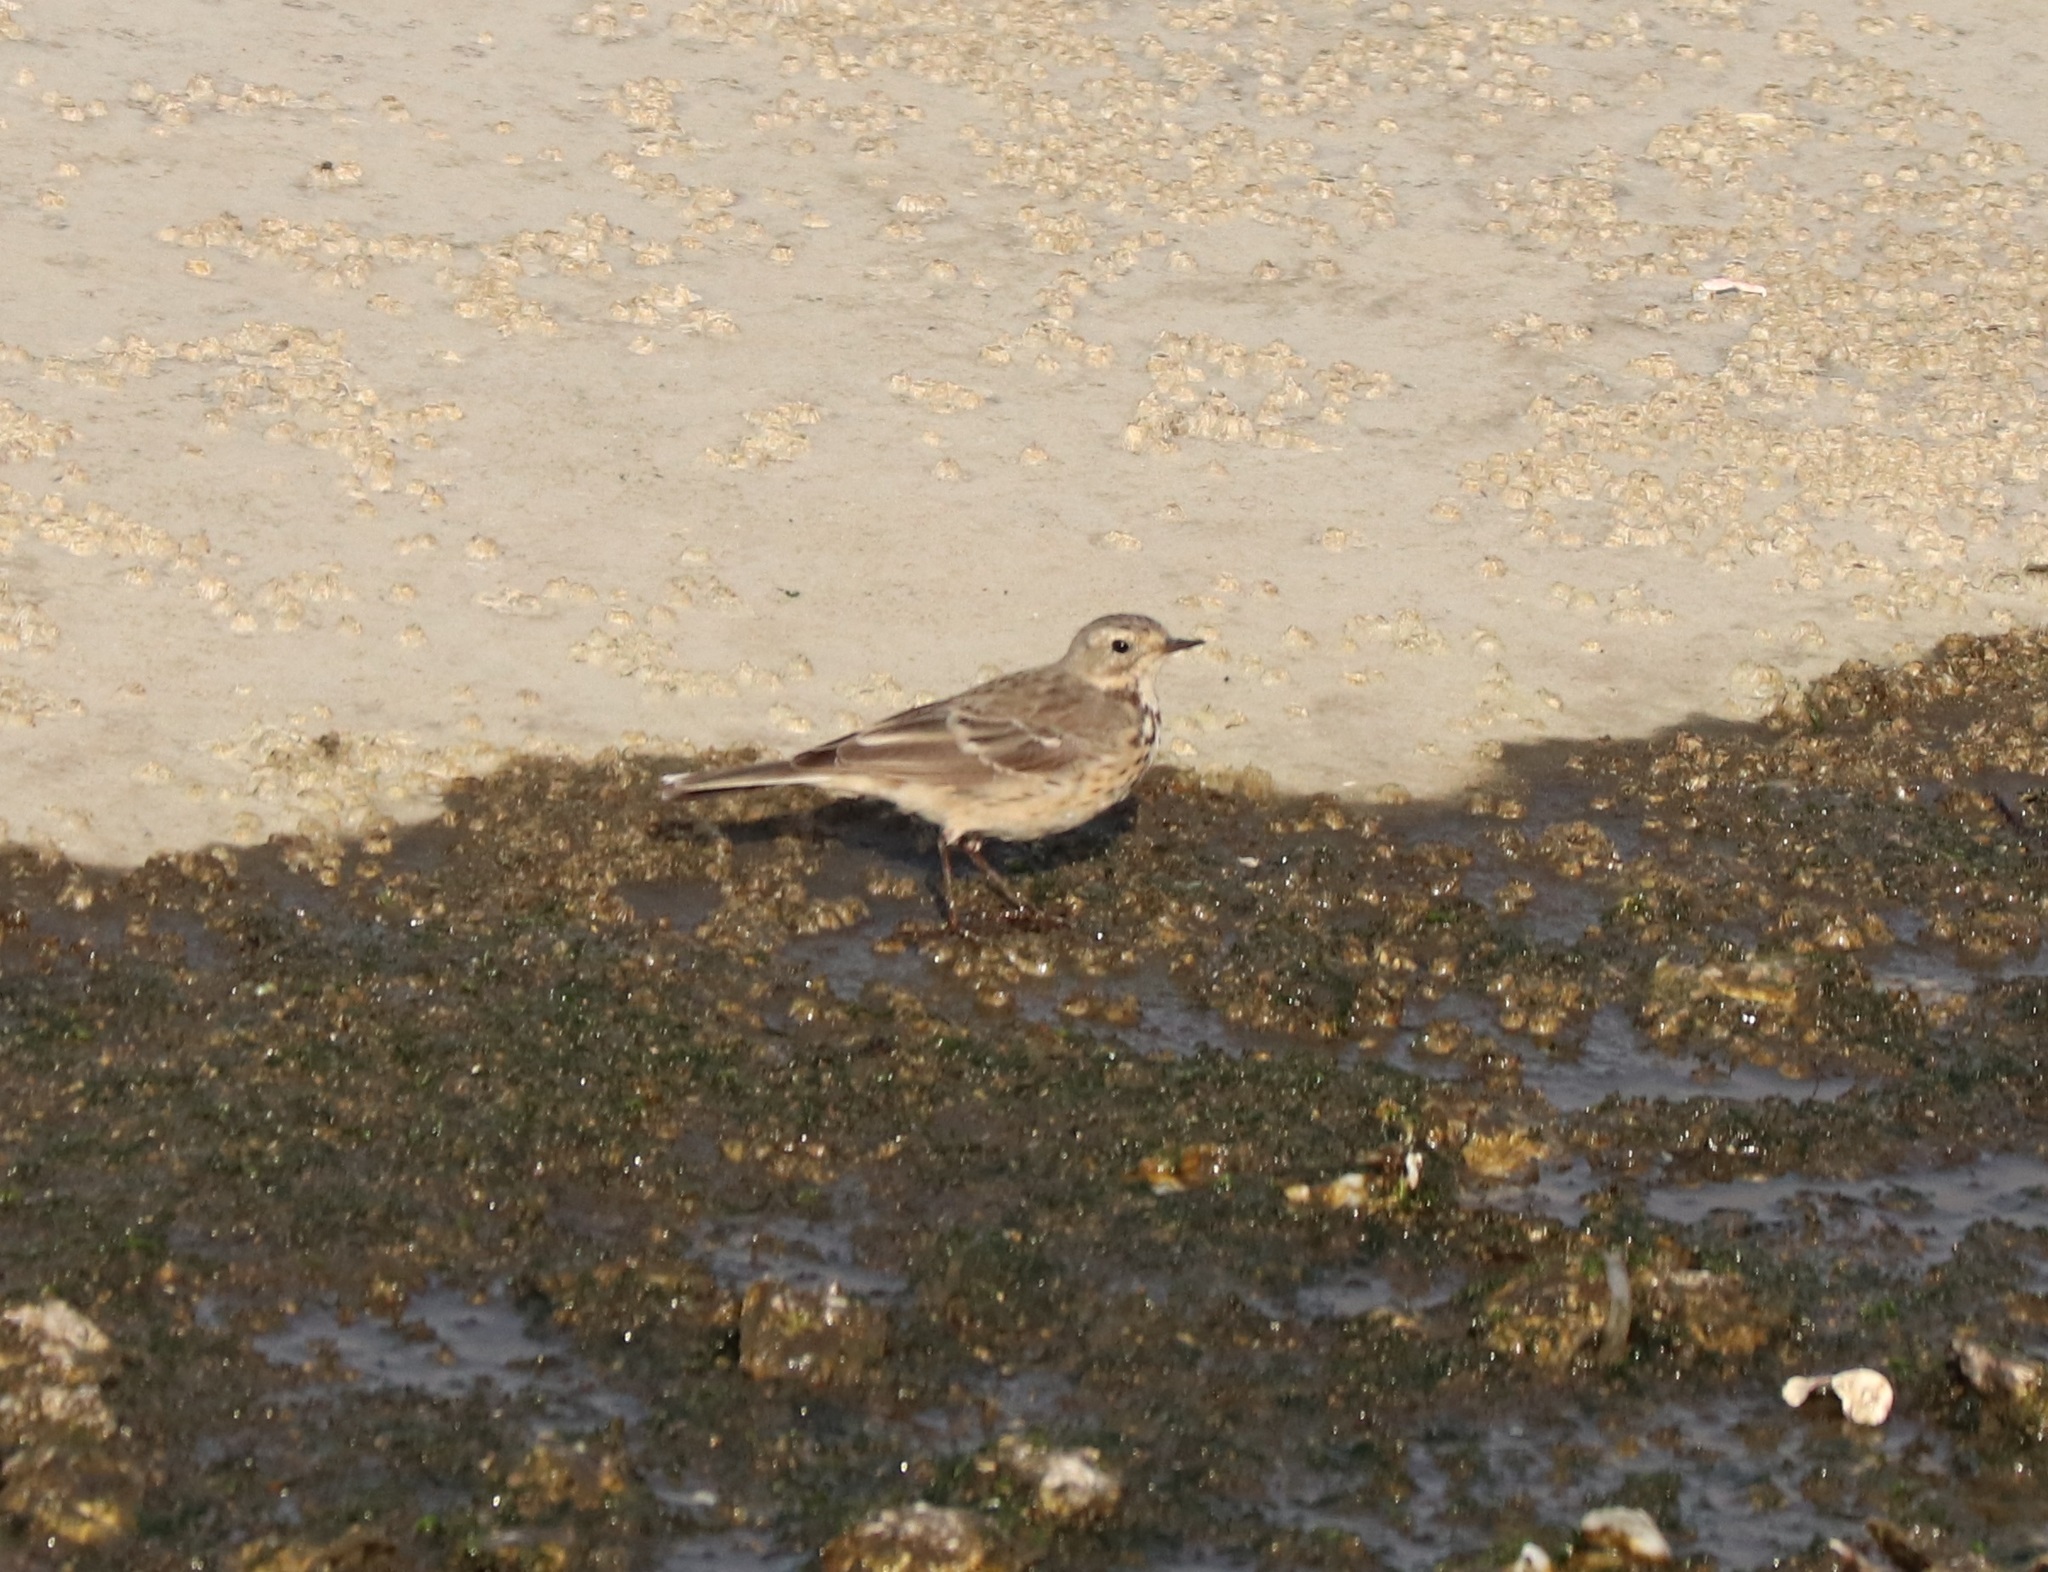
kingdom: Animalia
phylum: Chordata
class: Aves
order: Passeriformes
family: Motacillidae
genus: Anthus
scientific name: Anthus rubescens
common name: Buff-bellied pipit
